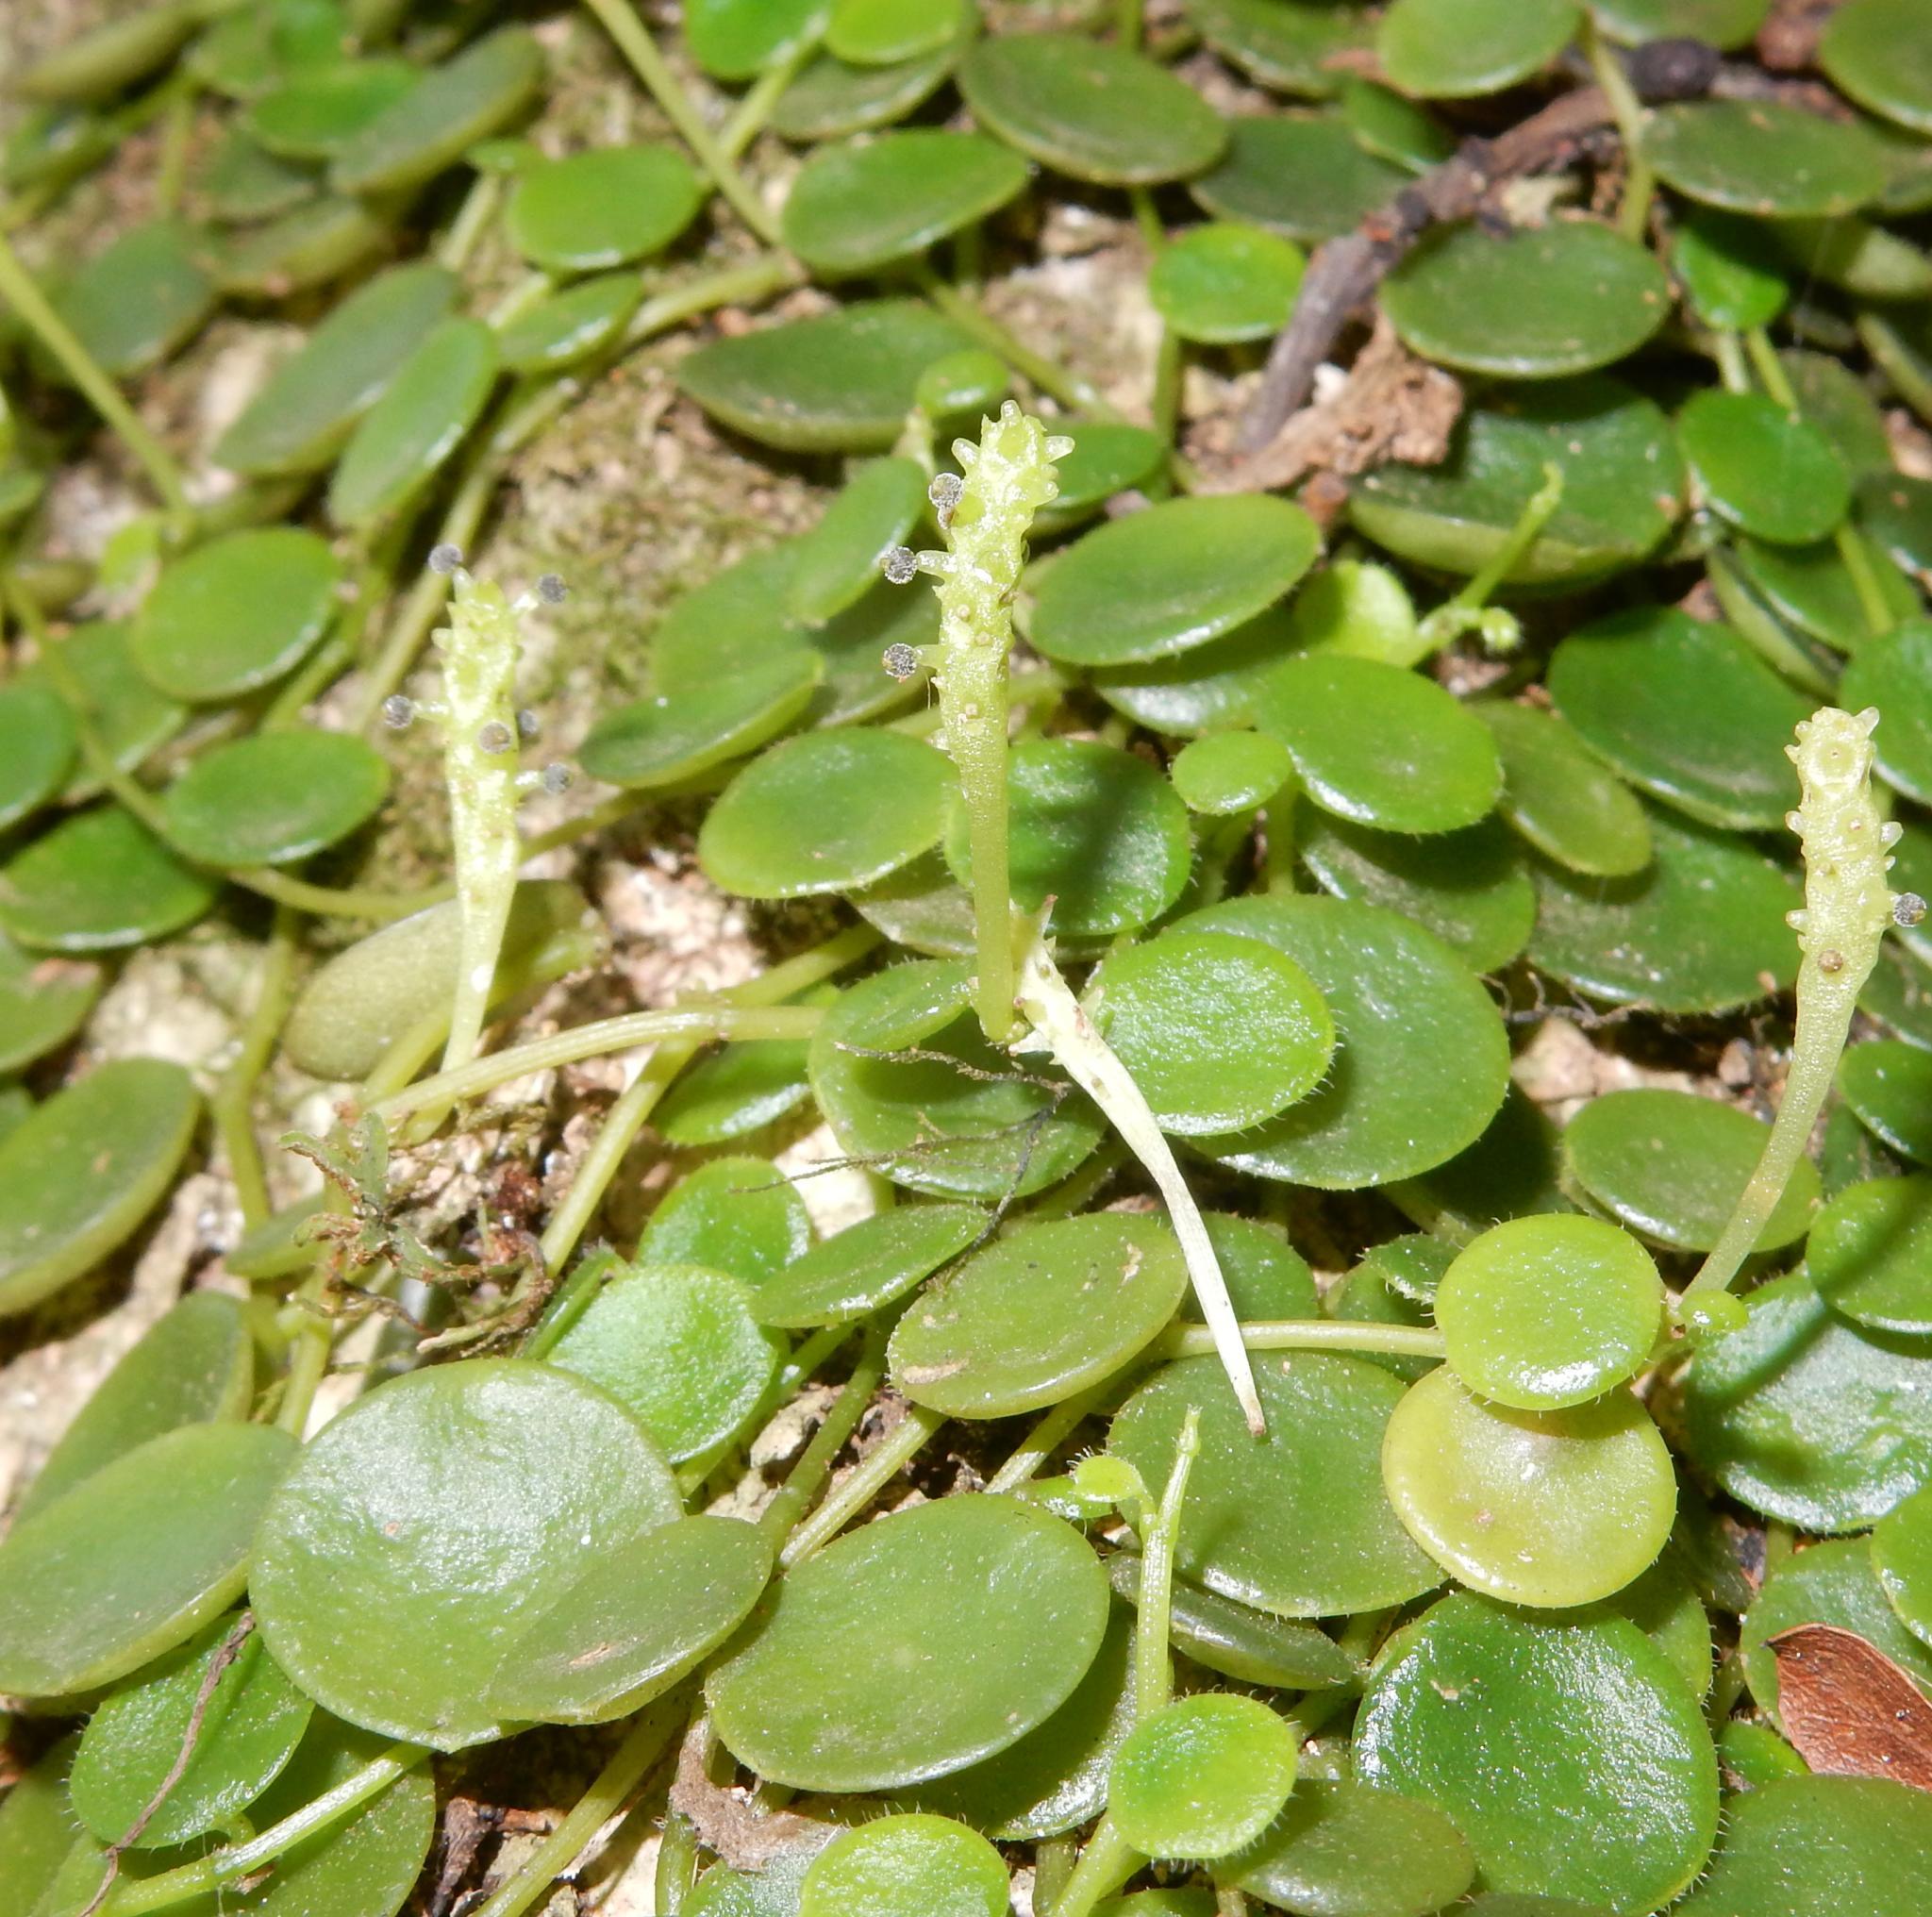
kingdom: Plantae
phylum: Tracheophyta
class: Magnoliopsida
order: Piperales
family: Piperaceae
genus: Peperomia
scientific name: Peperomia bangroana
